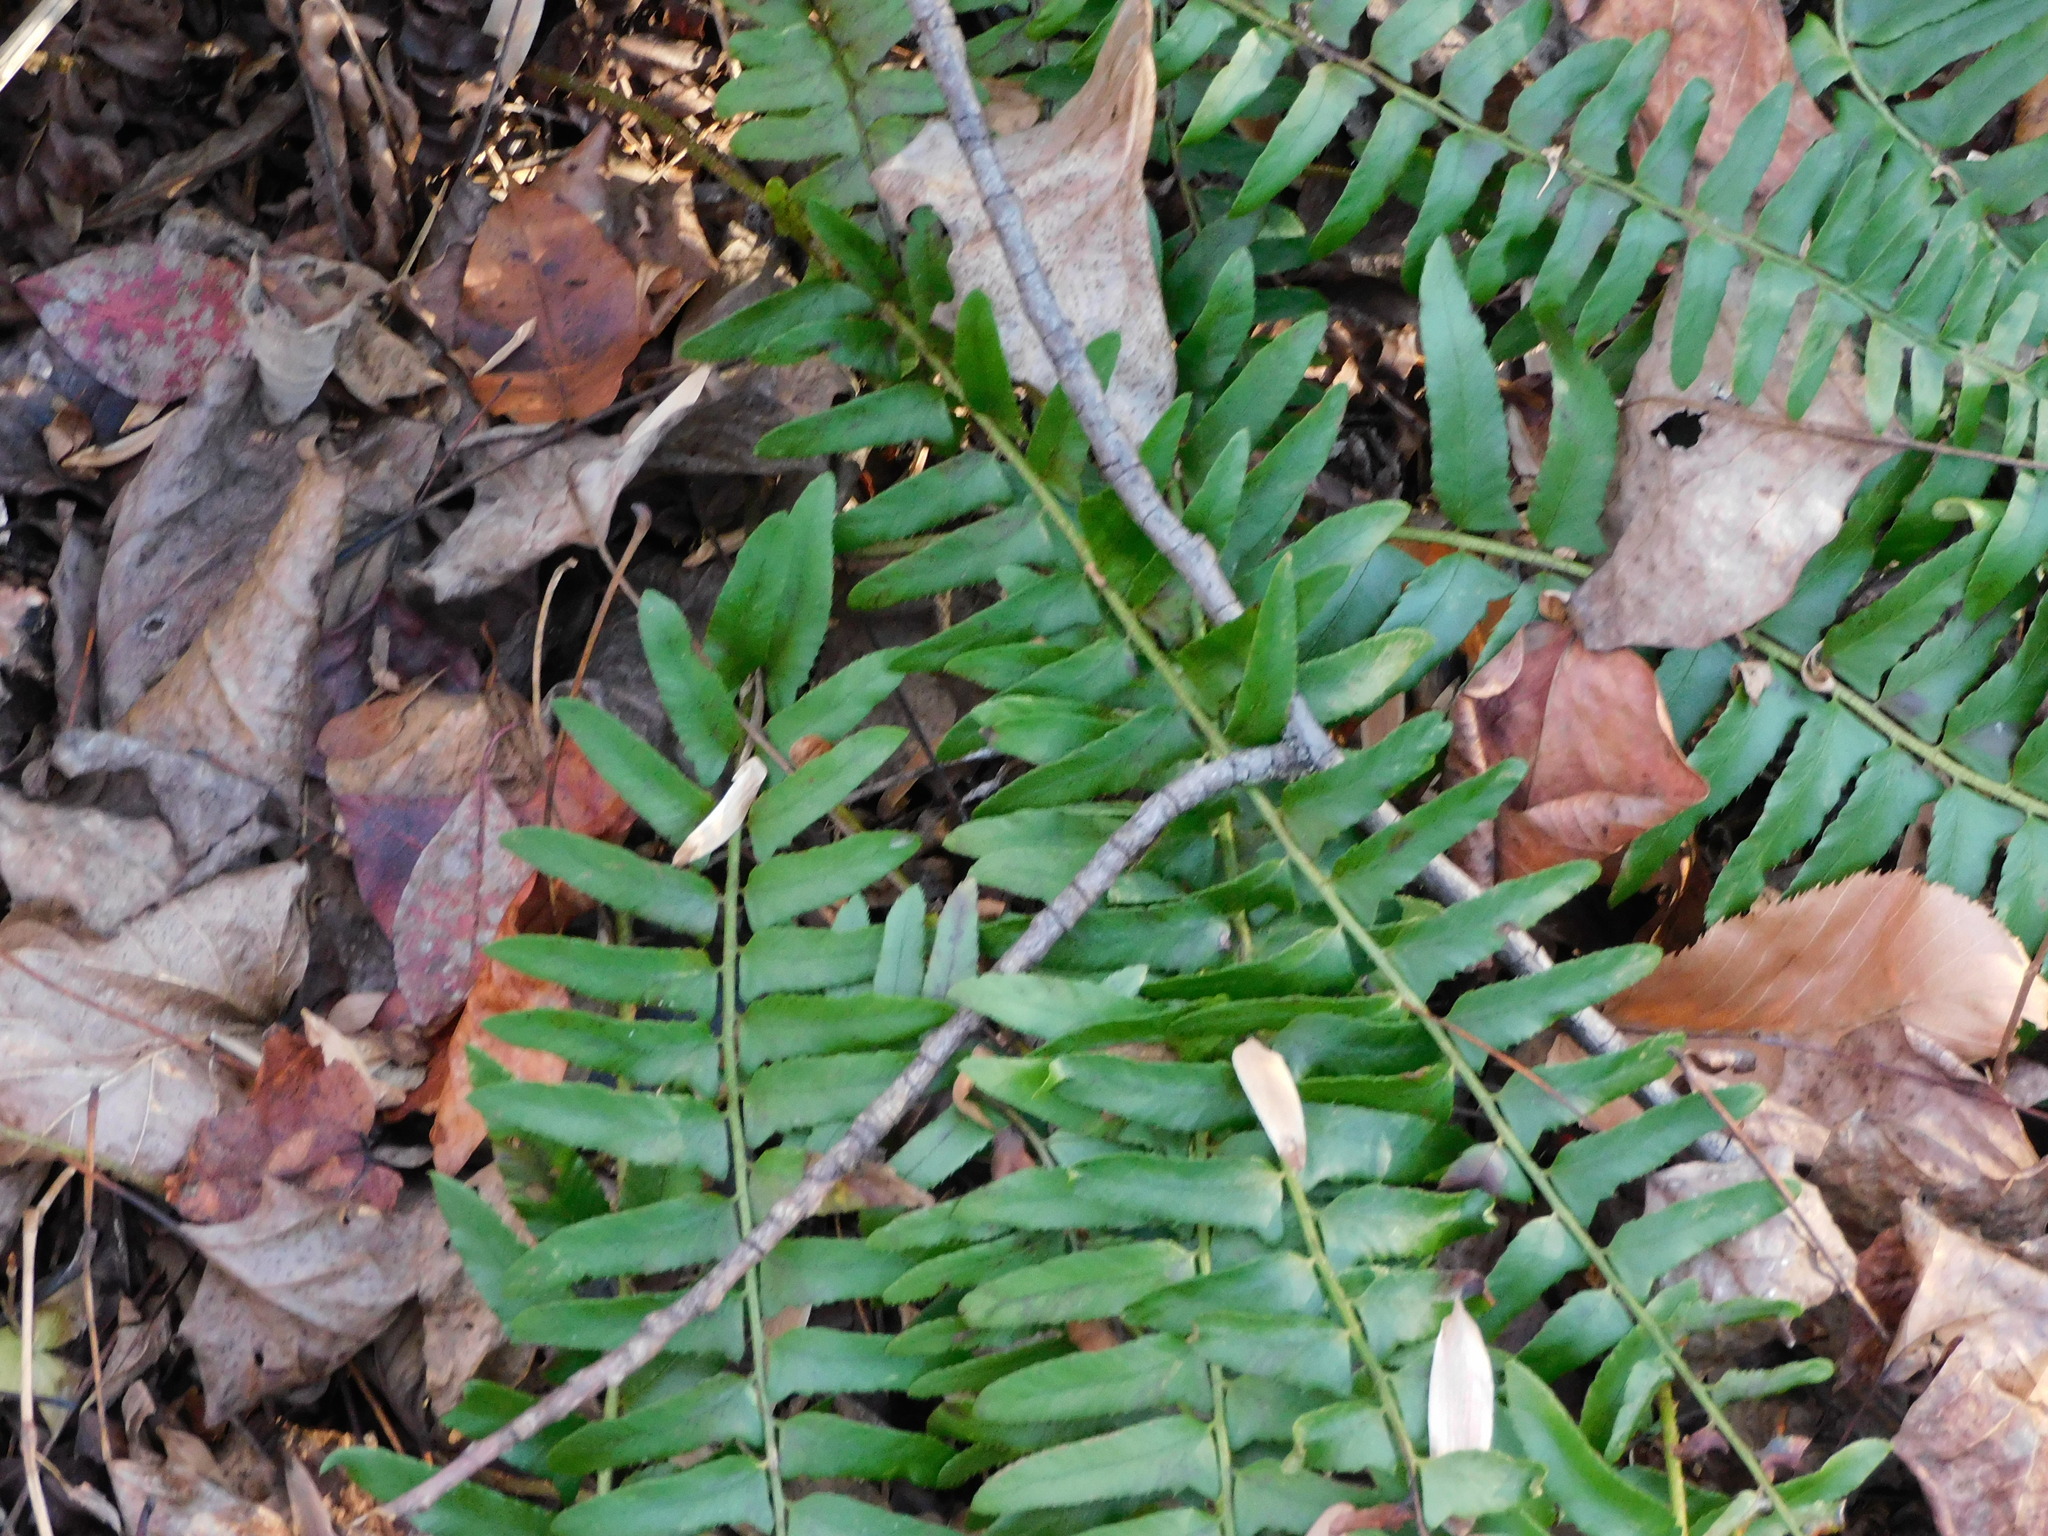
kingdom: Plantae
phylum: Tracheophyta
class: Polypodiopsida
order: Polypodiales
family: Dryopteridaceae
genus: Polystichum
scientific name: Polystichum acrostichoides
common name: Christmas fern
